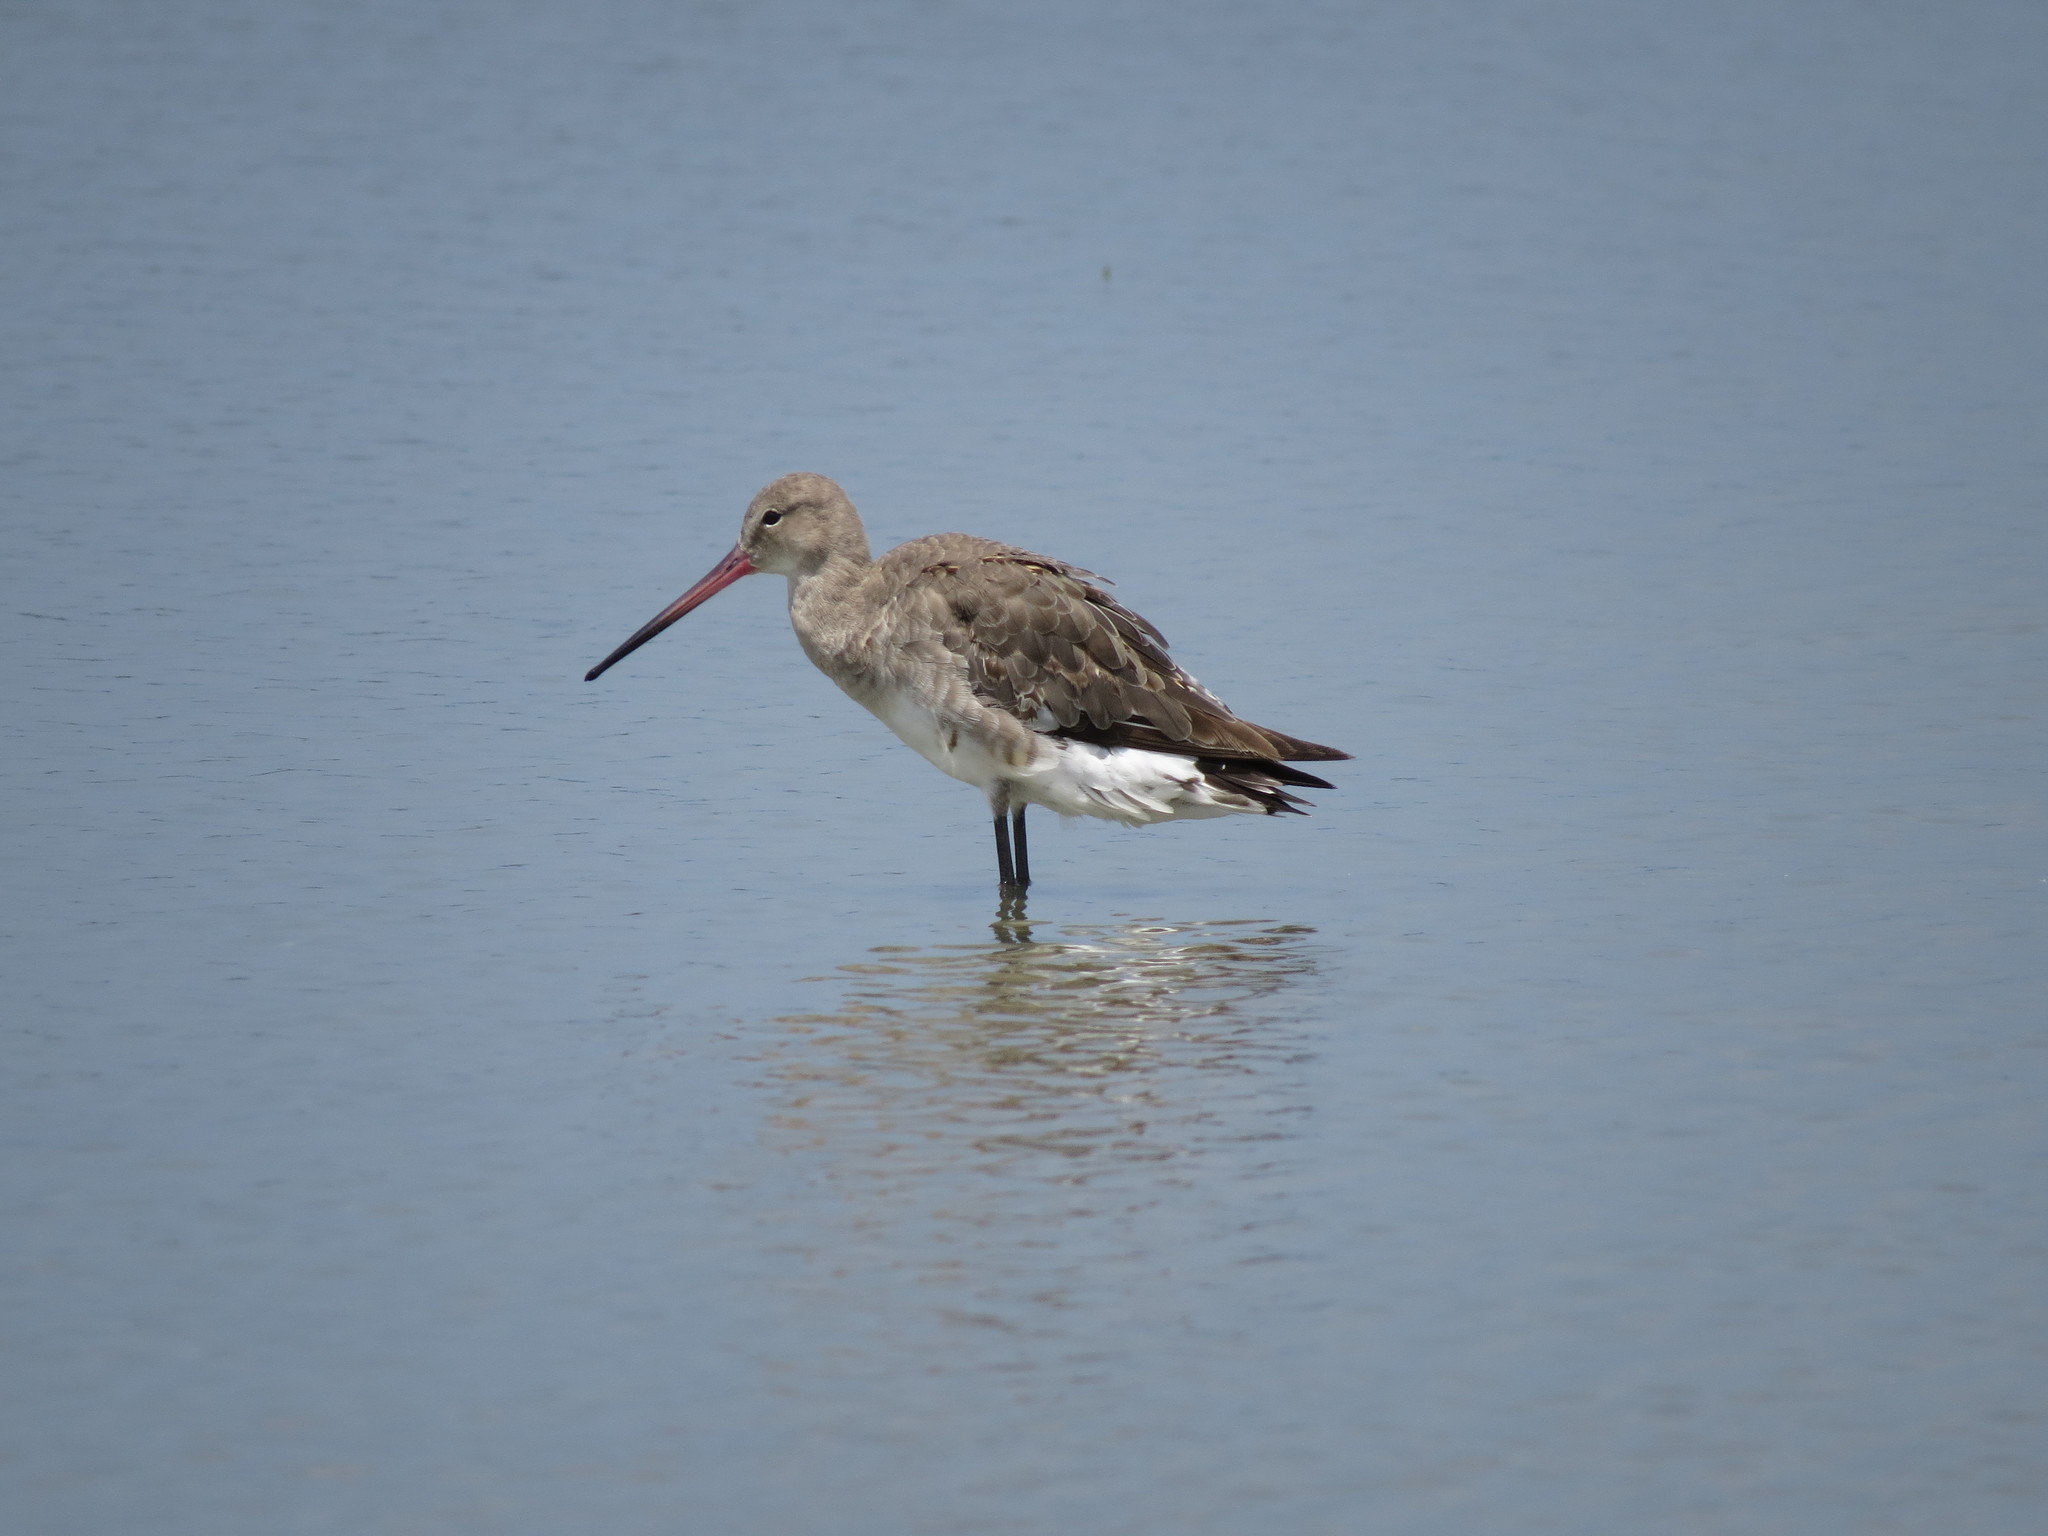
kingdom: Animalia
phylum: Chordata
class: Aves
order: Charadriiformes
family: Scolopacidae
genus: Limosa
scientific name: Limosa limosa
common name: Black-tailed godwit
